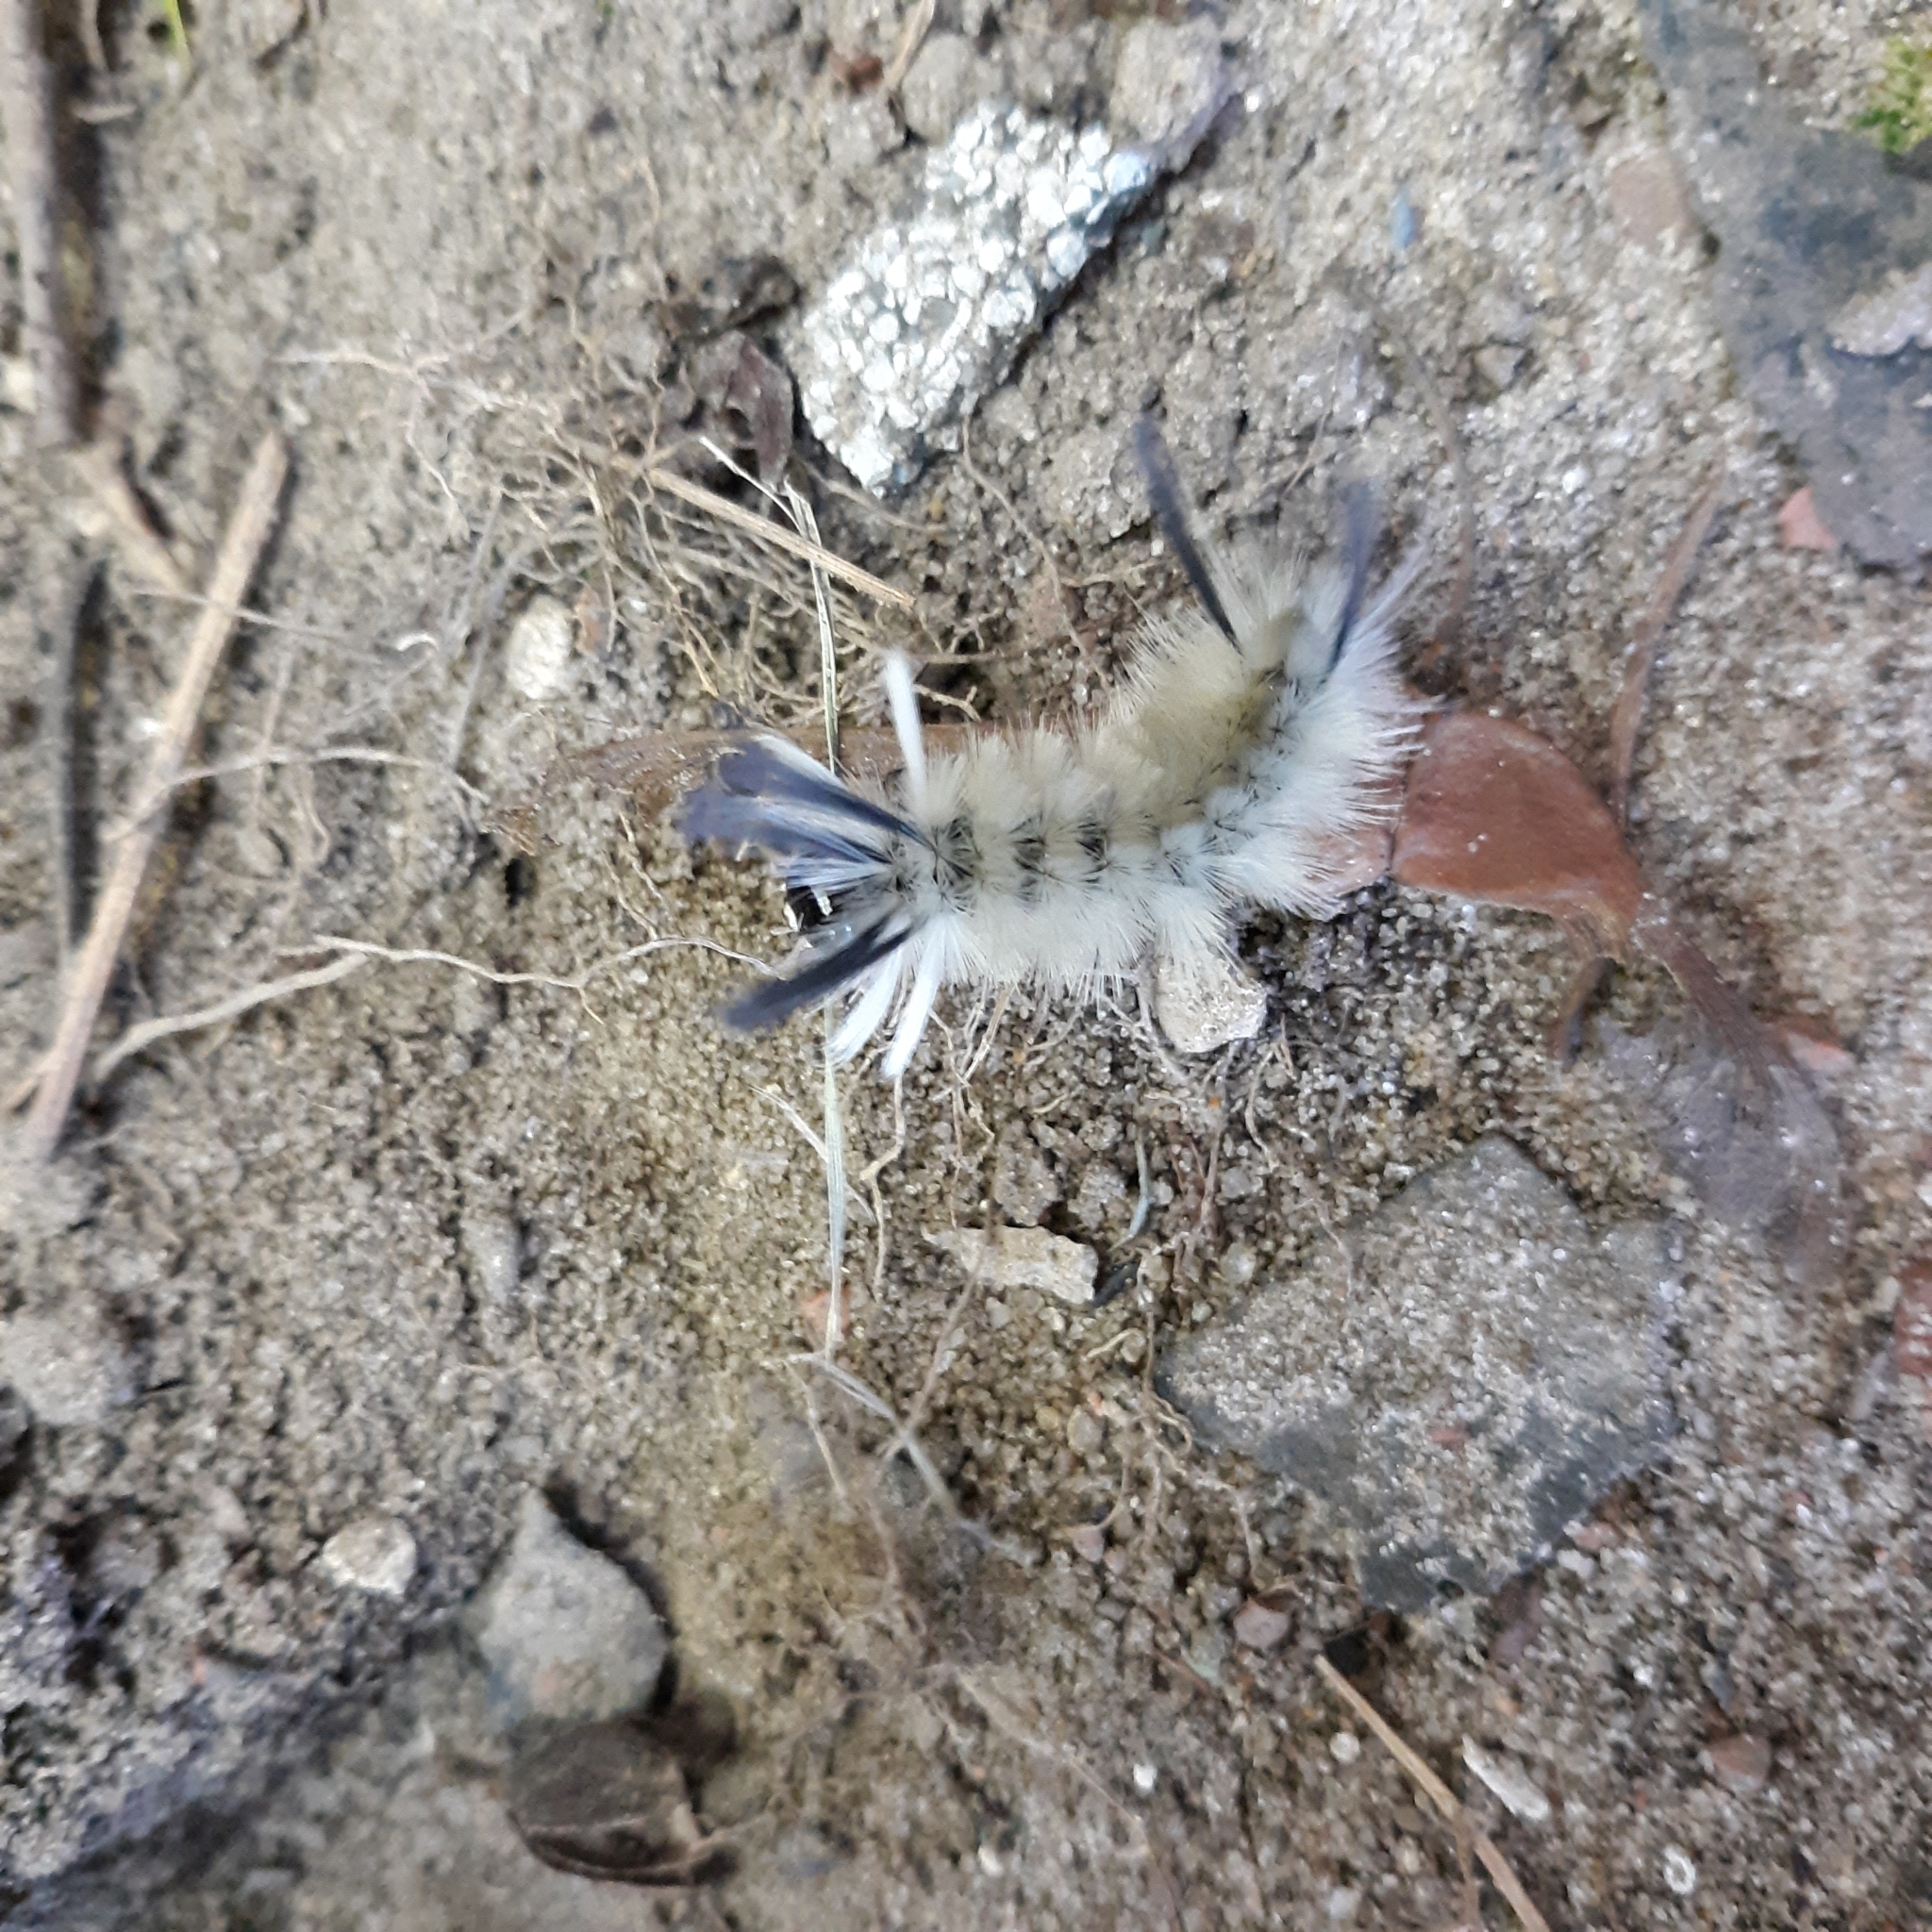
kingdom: Animalia
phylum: Arthropoda
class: Insecta
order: Lepidoptera
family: Erebidae
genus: Halysidota
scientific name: Halysidota tessellaris
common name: Banded tussock moth
